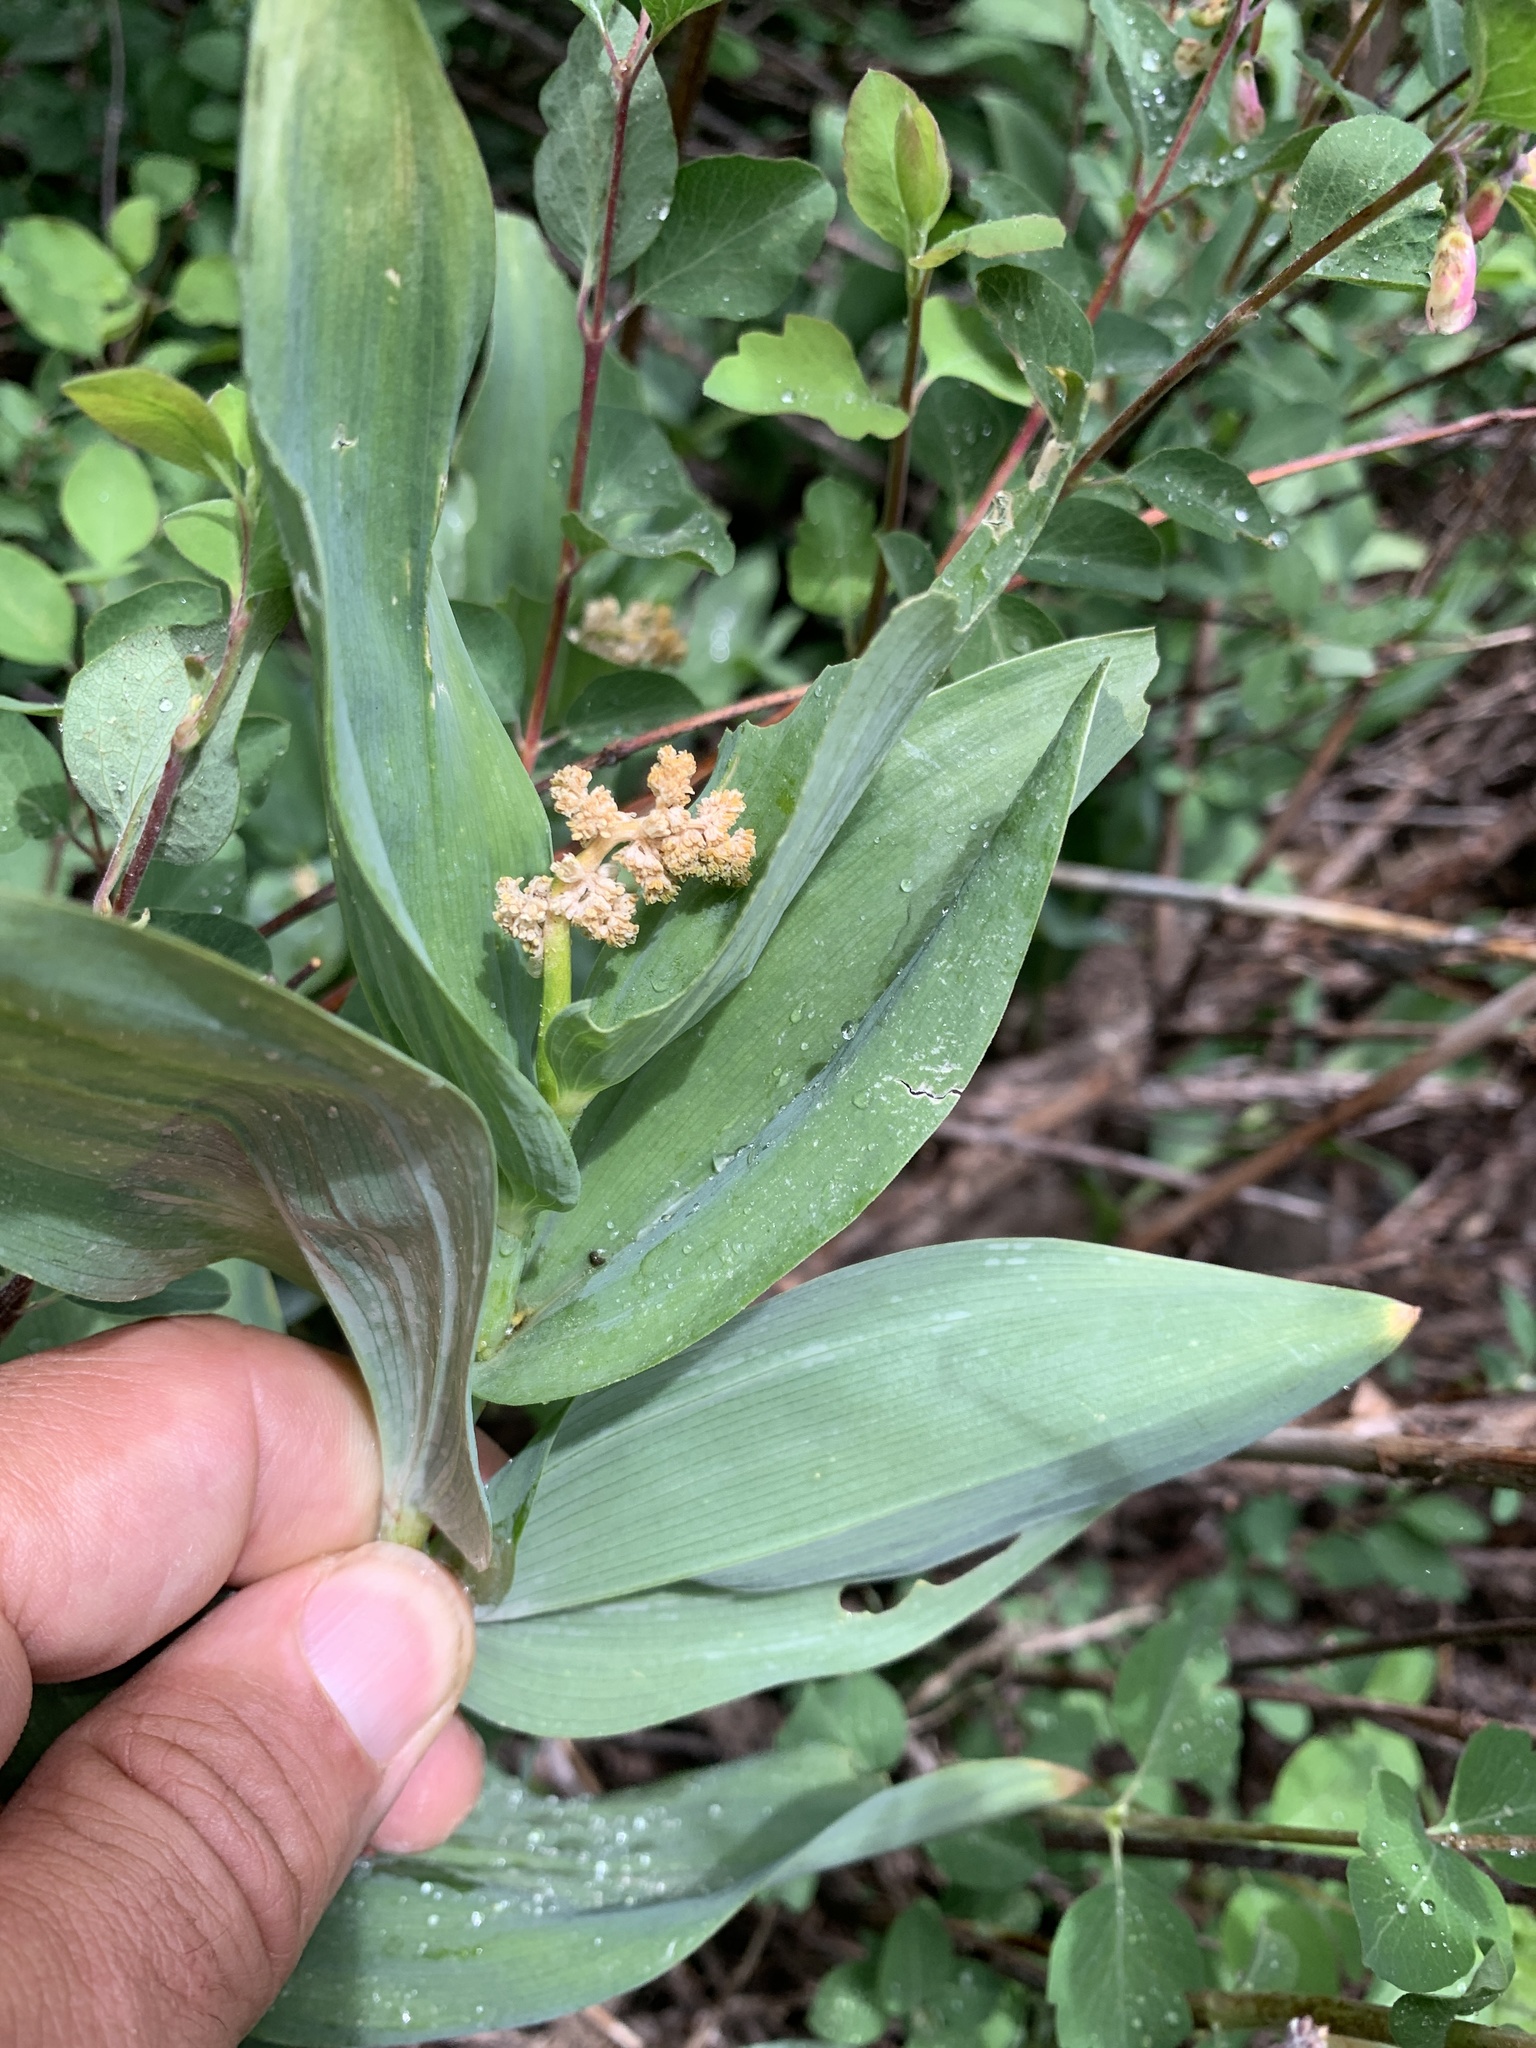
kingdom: Plantae
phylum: Tracheophyta
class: Liliopsida
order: Asparagales
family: Asparagaceae
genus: Maianthemum
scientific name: Maianthemum racemosum
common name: False spikenard
